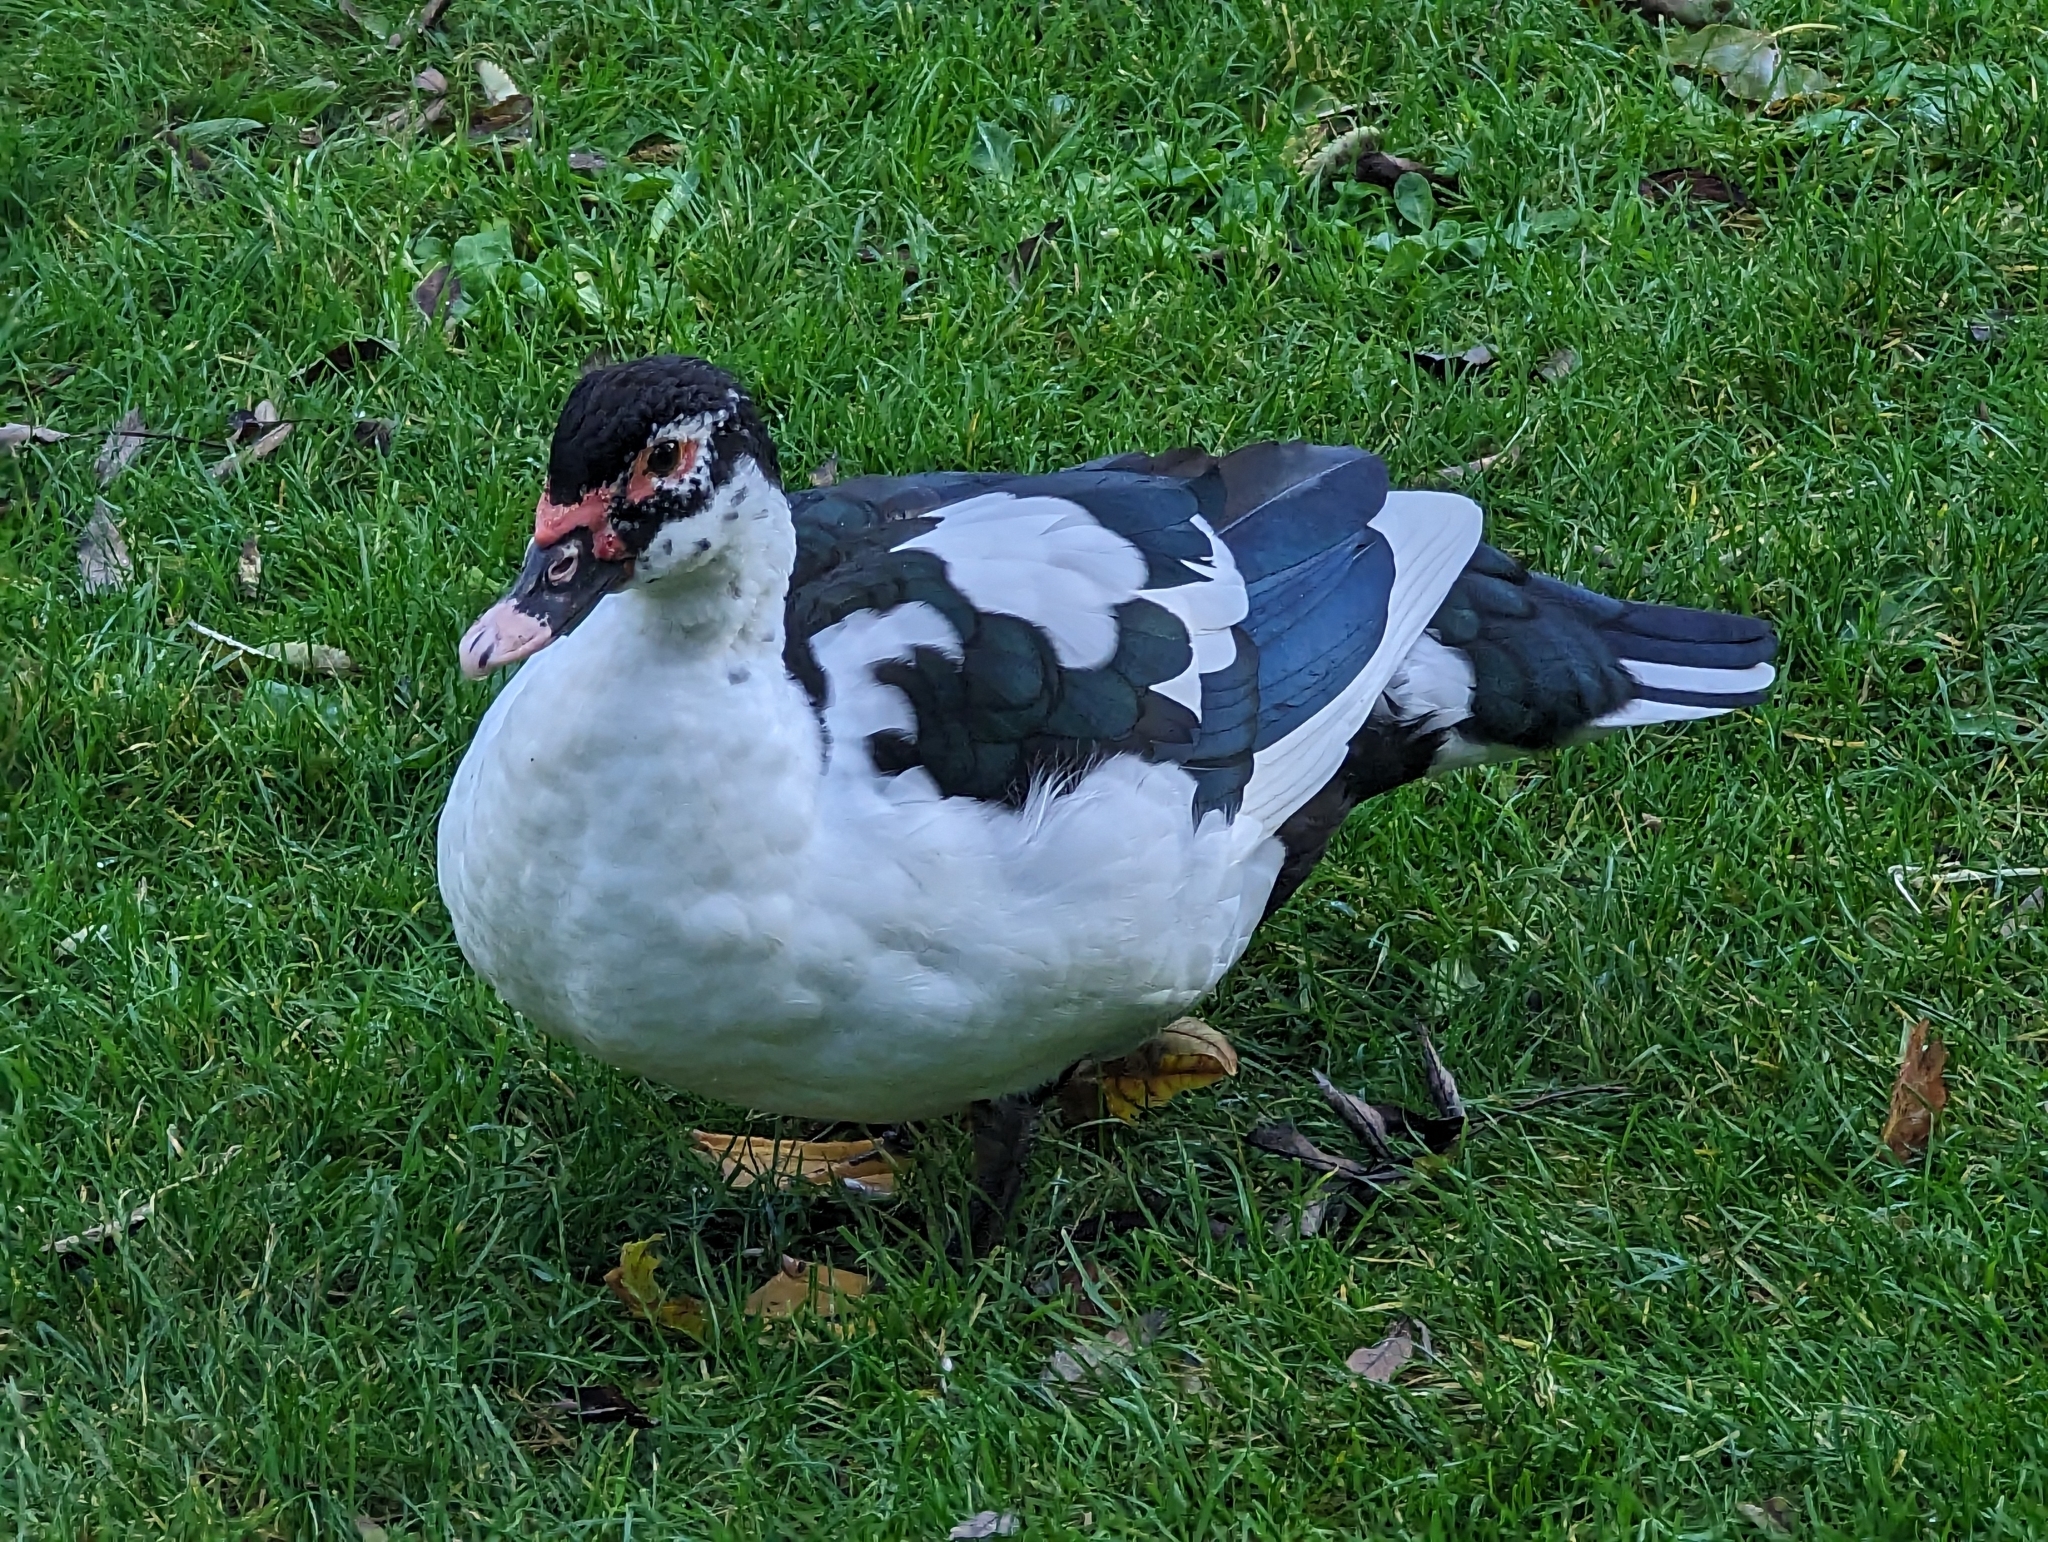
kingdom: Animalia
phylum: Chordata
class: Aves
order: Anseriformes
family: Anatidae
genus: Cairina
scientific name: Cairina moschata
